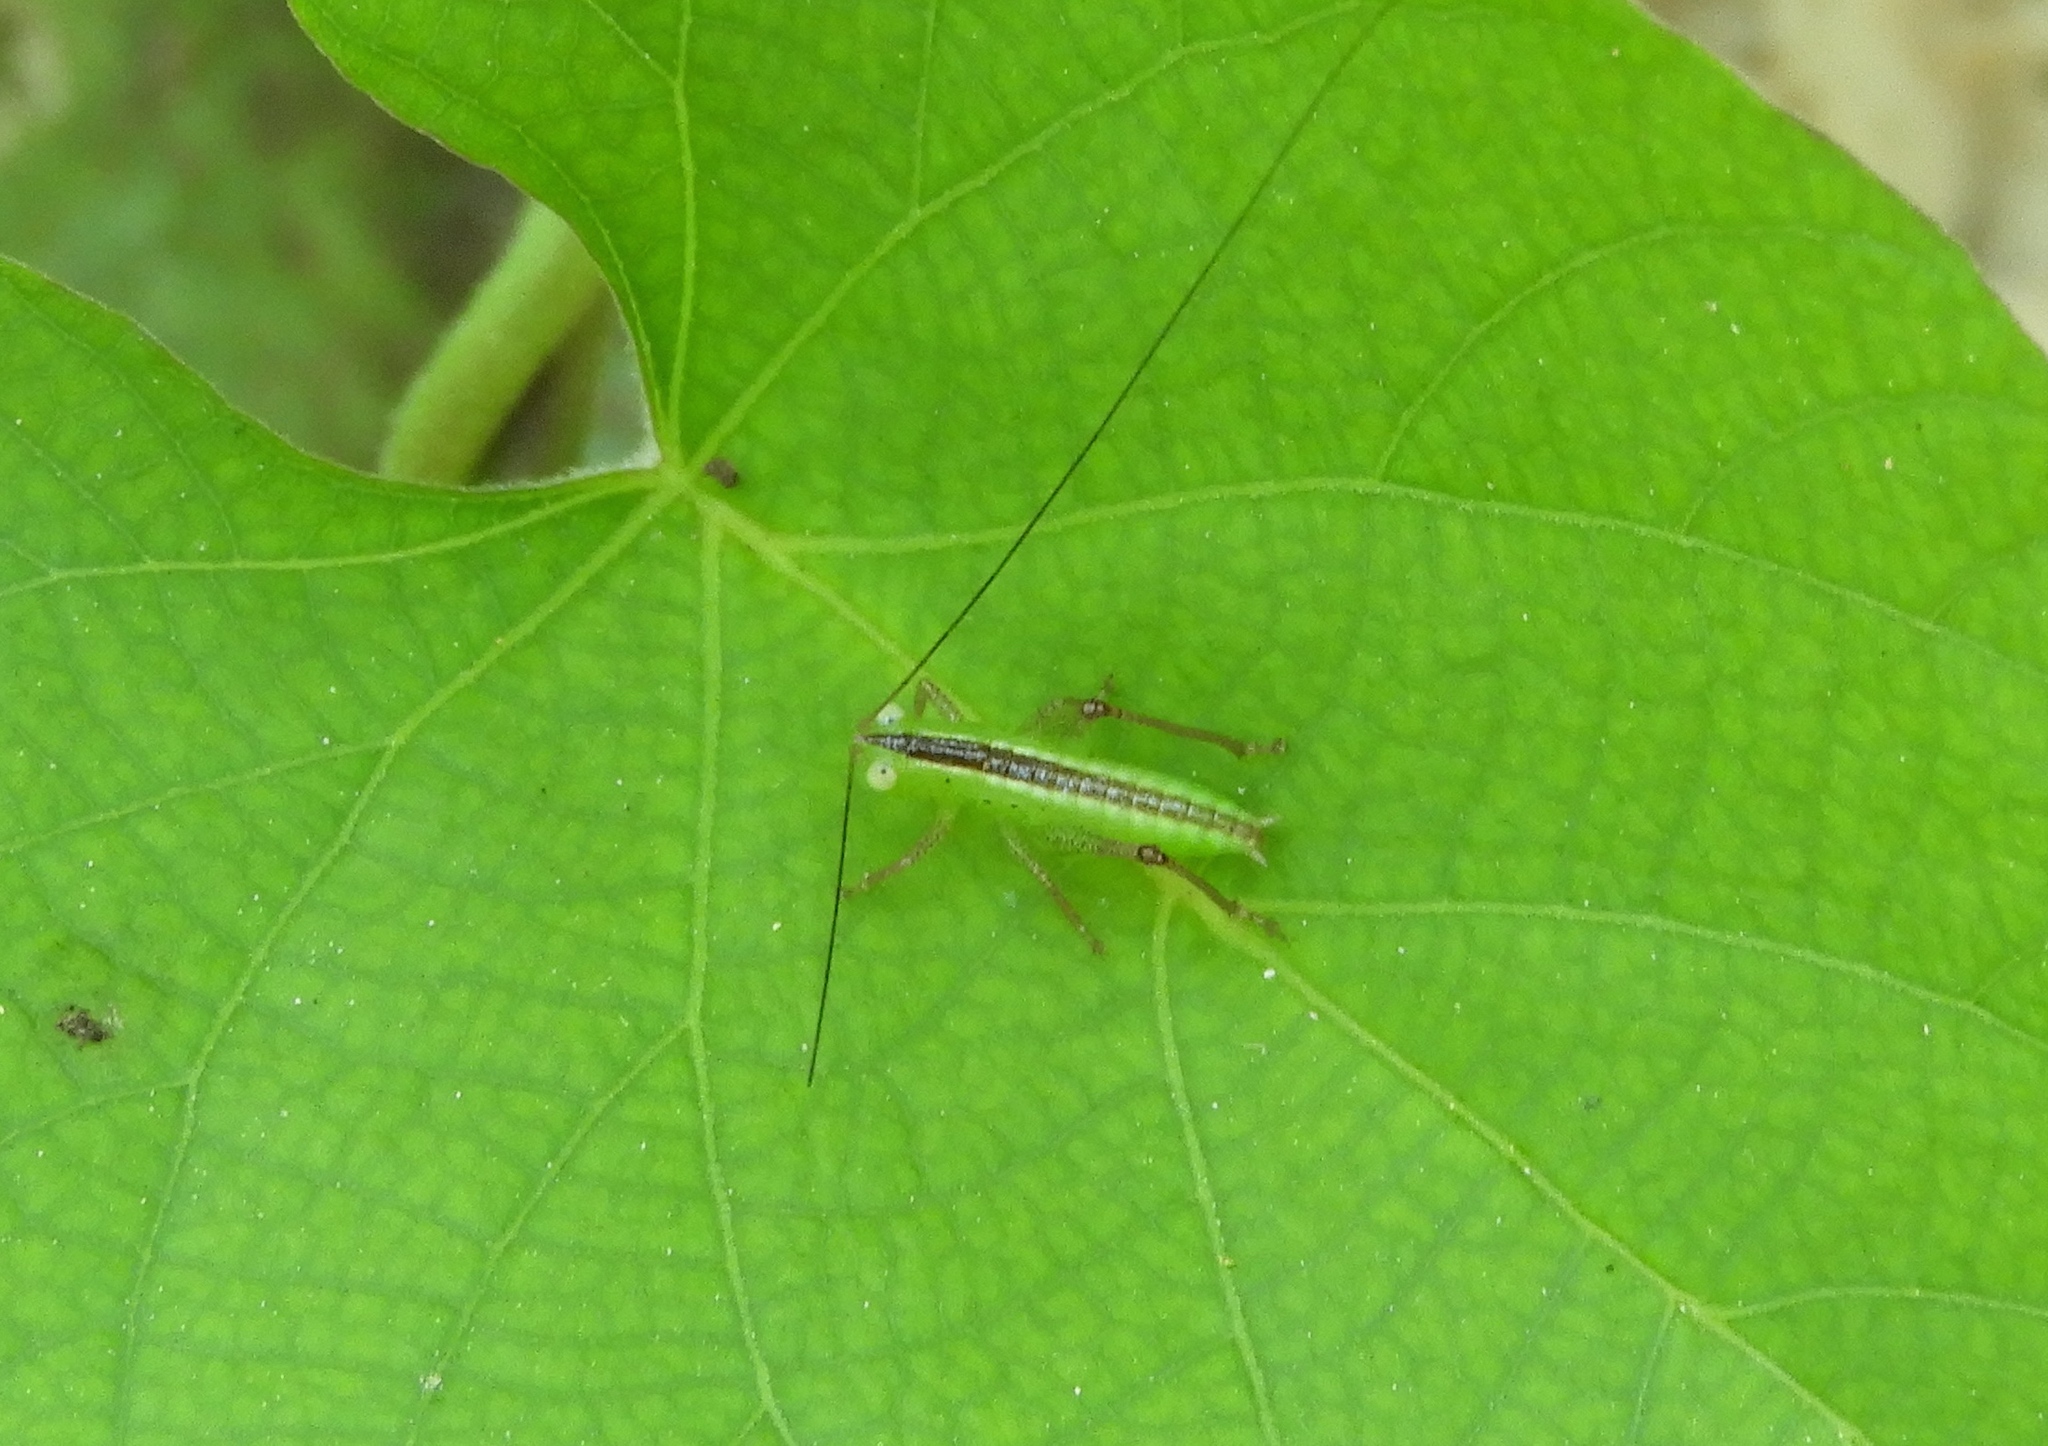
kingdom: Animalia
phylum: Arthropoda
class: Insecta
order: Orthoptera
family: Tettigoniidae
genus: Conocephalus
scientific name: Conocephalus
